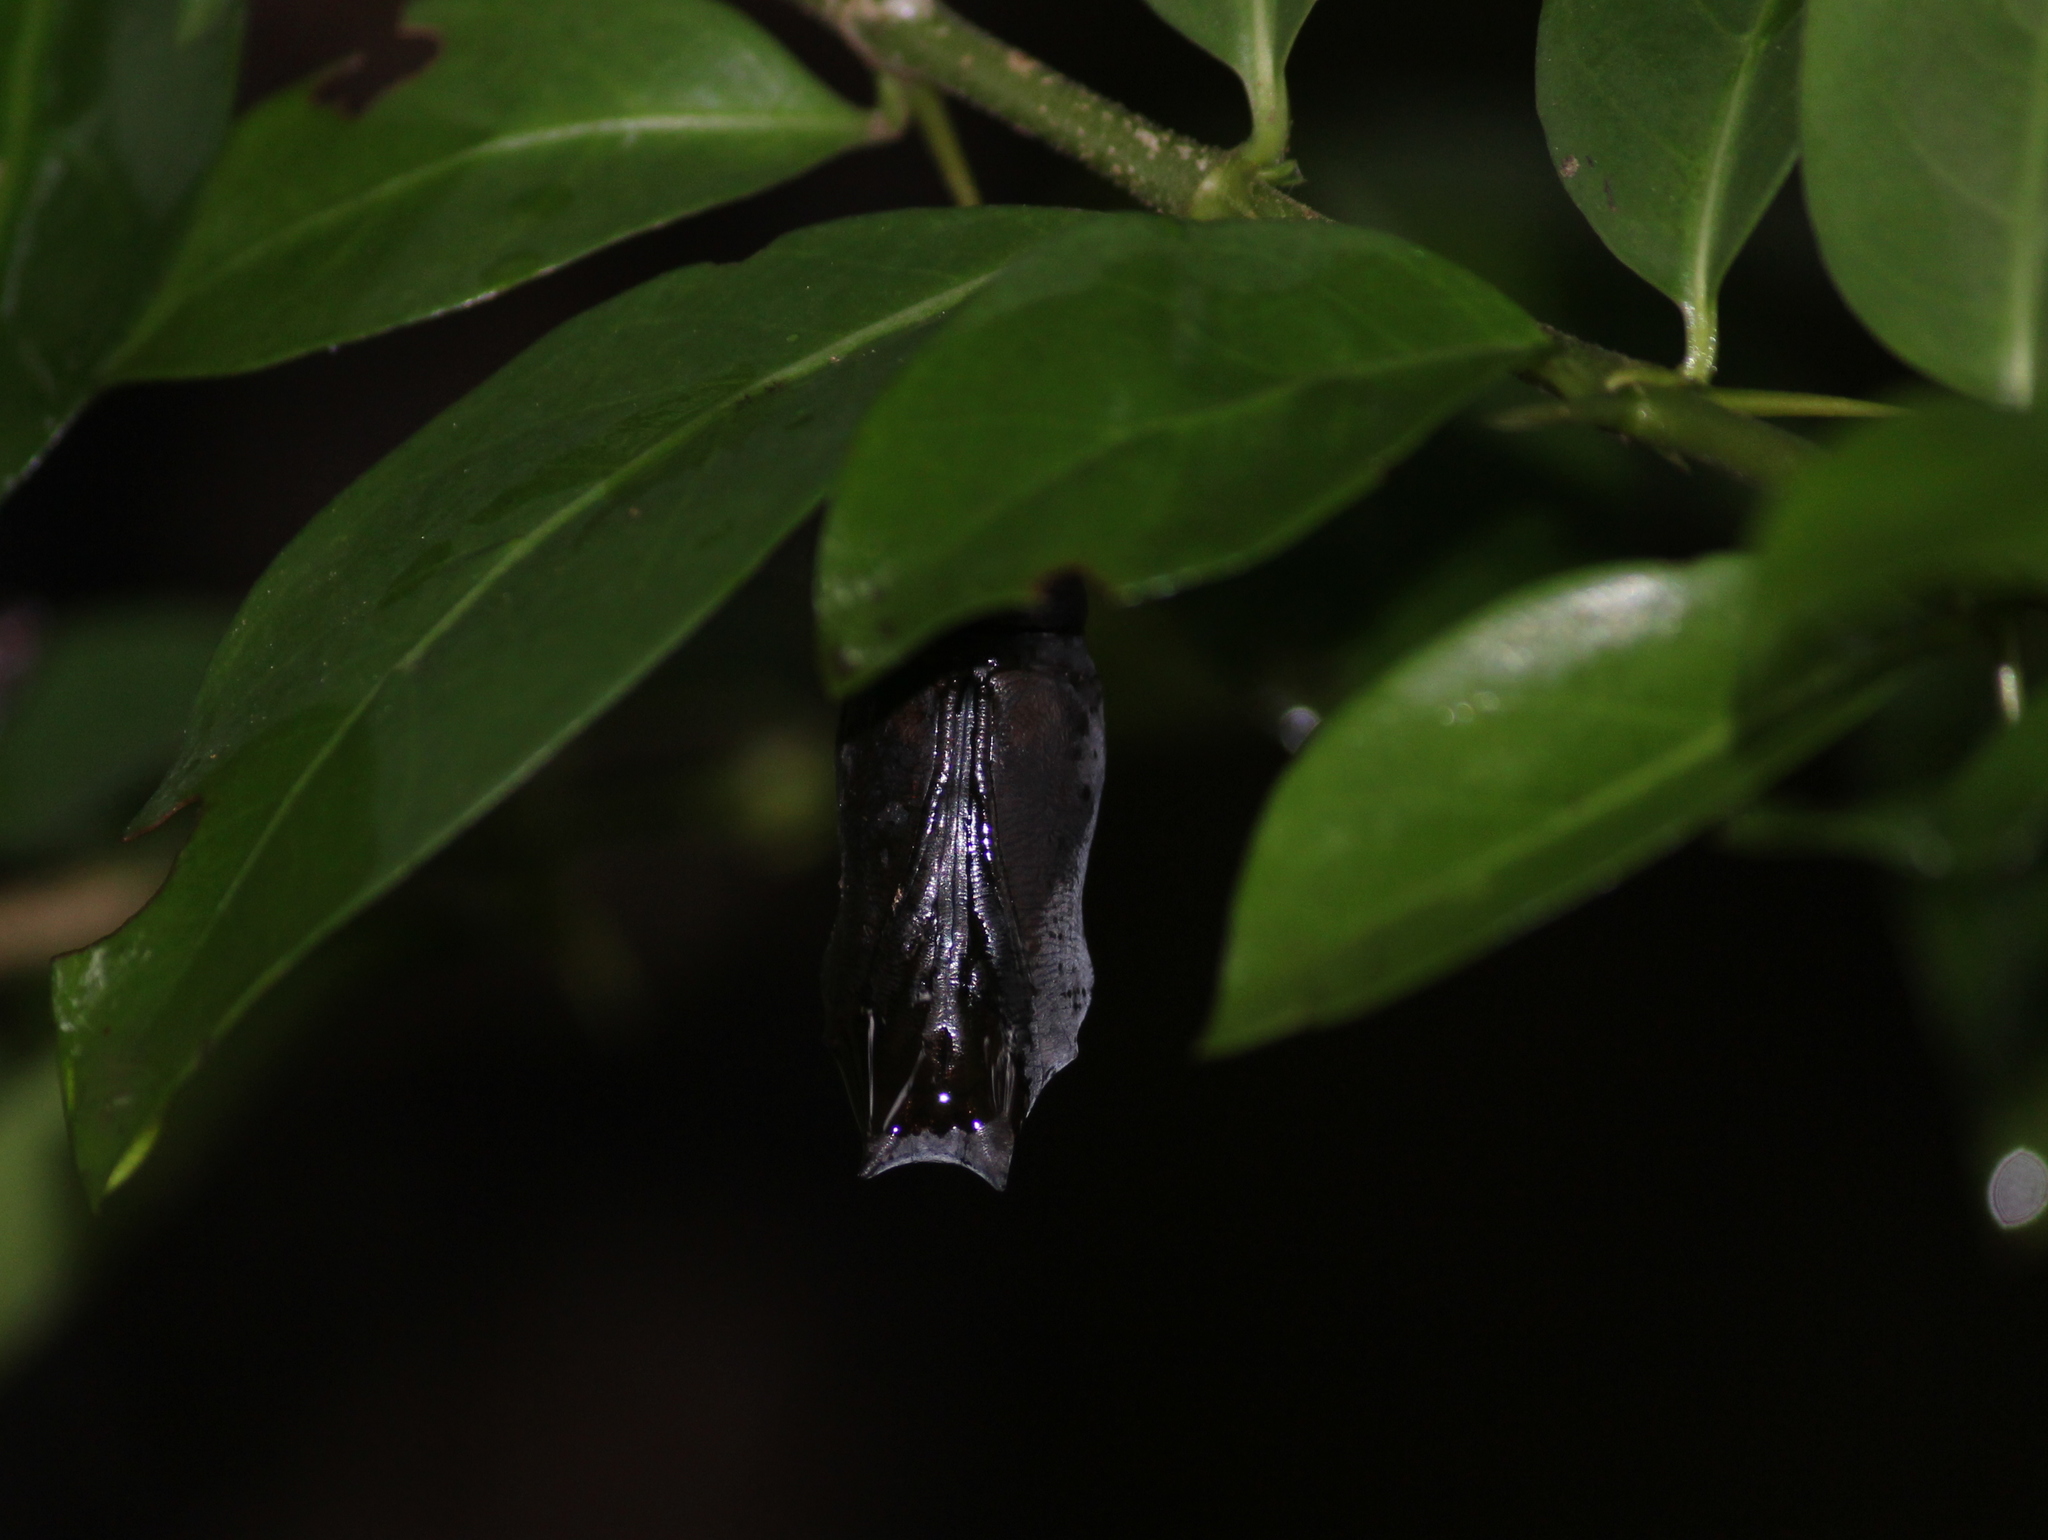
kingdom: Animalia
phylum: Arthropoda
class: Insecta
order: Lepidoptera
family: Nymphalidae
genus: Doleschallia
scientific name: Doleschallia bisaltide
